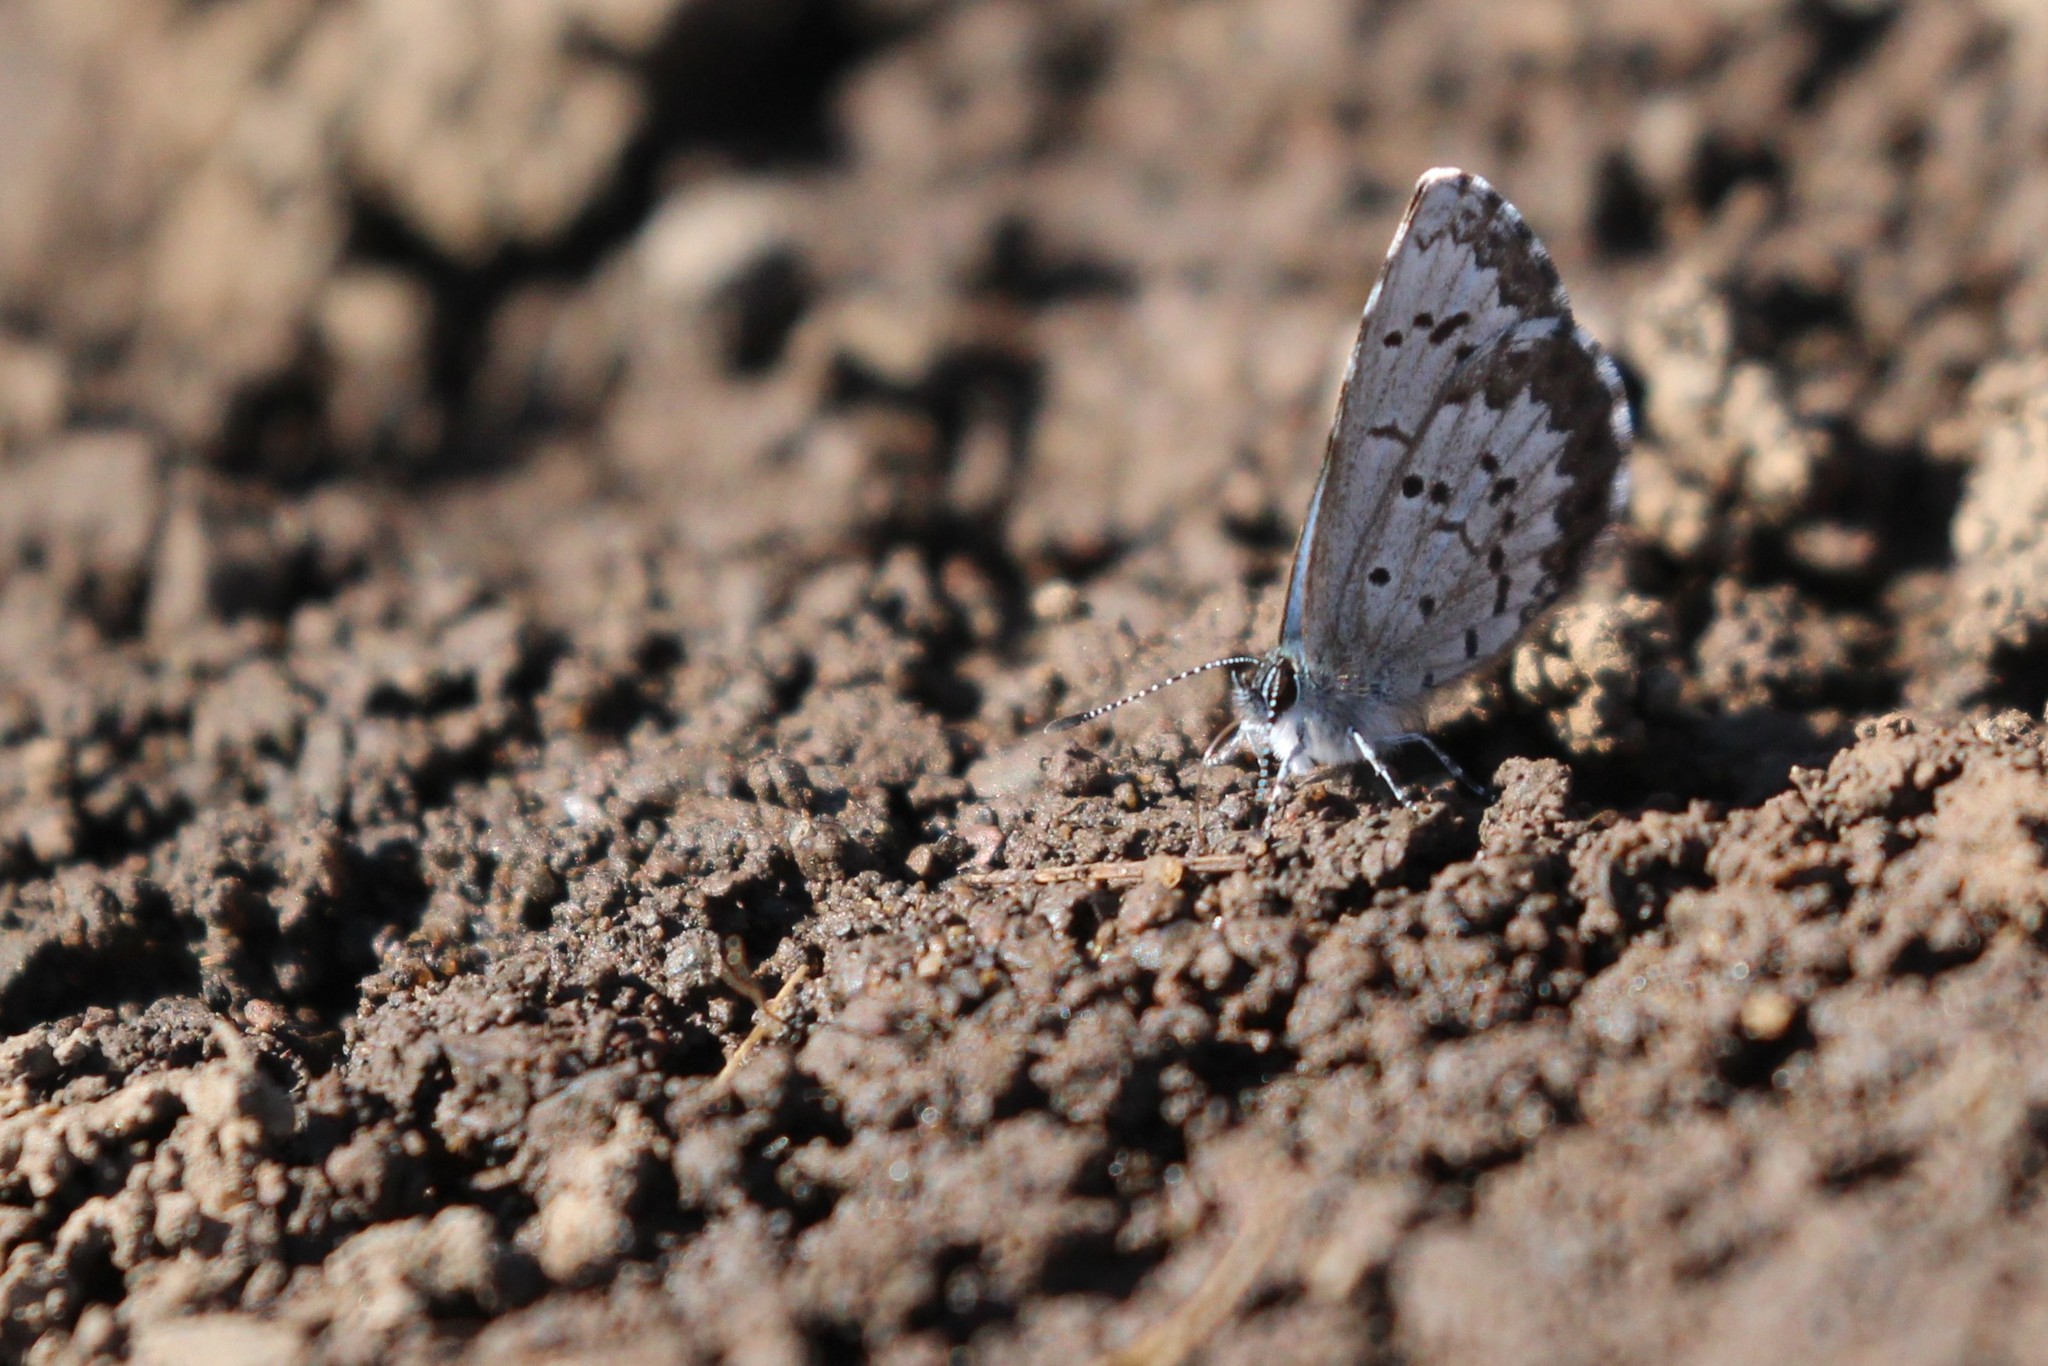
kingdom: Animalia
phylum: Arthropoda
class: Insecta
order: Lepidoptera
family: Lycaenidae
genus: Celastrina
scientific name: Celastrina lucia
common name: Lucia azure
